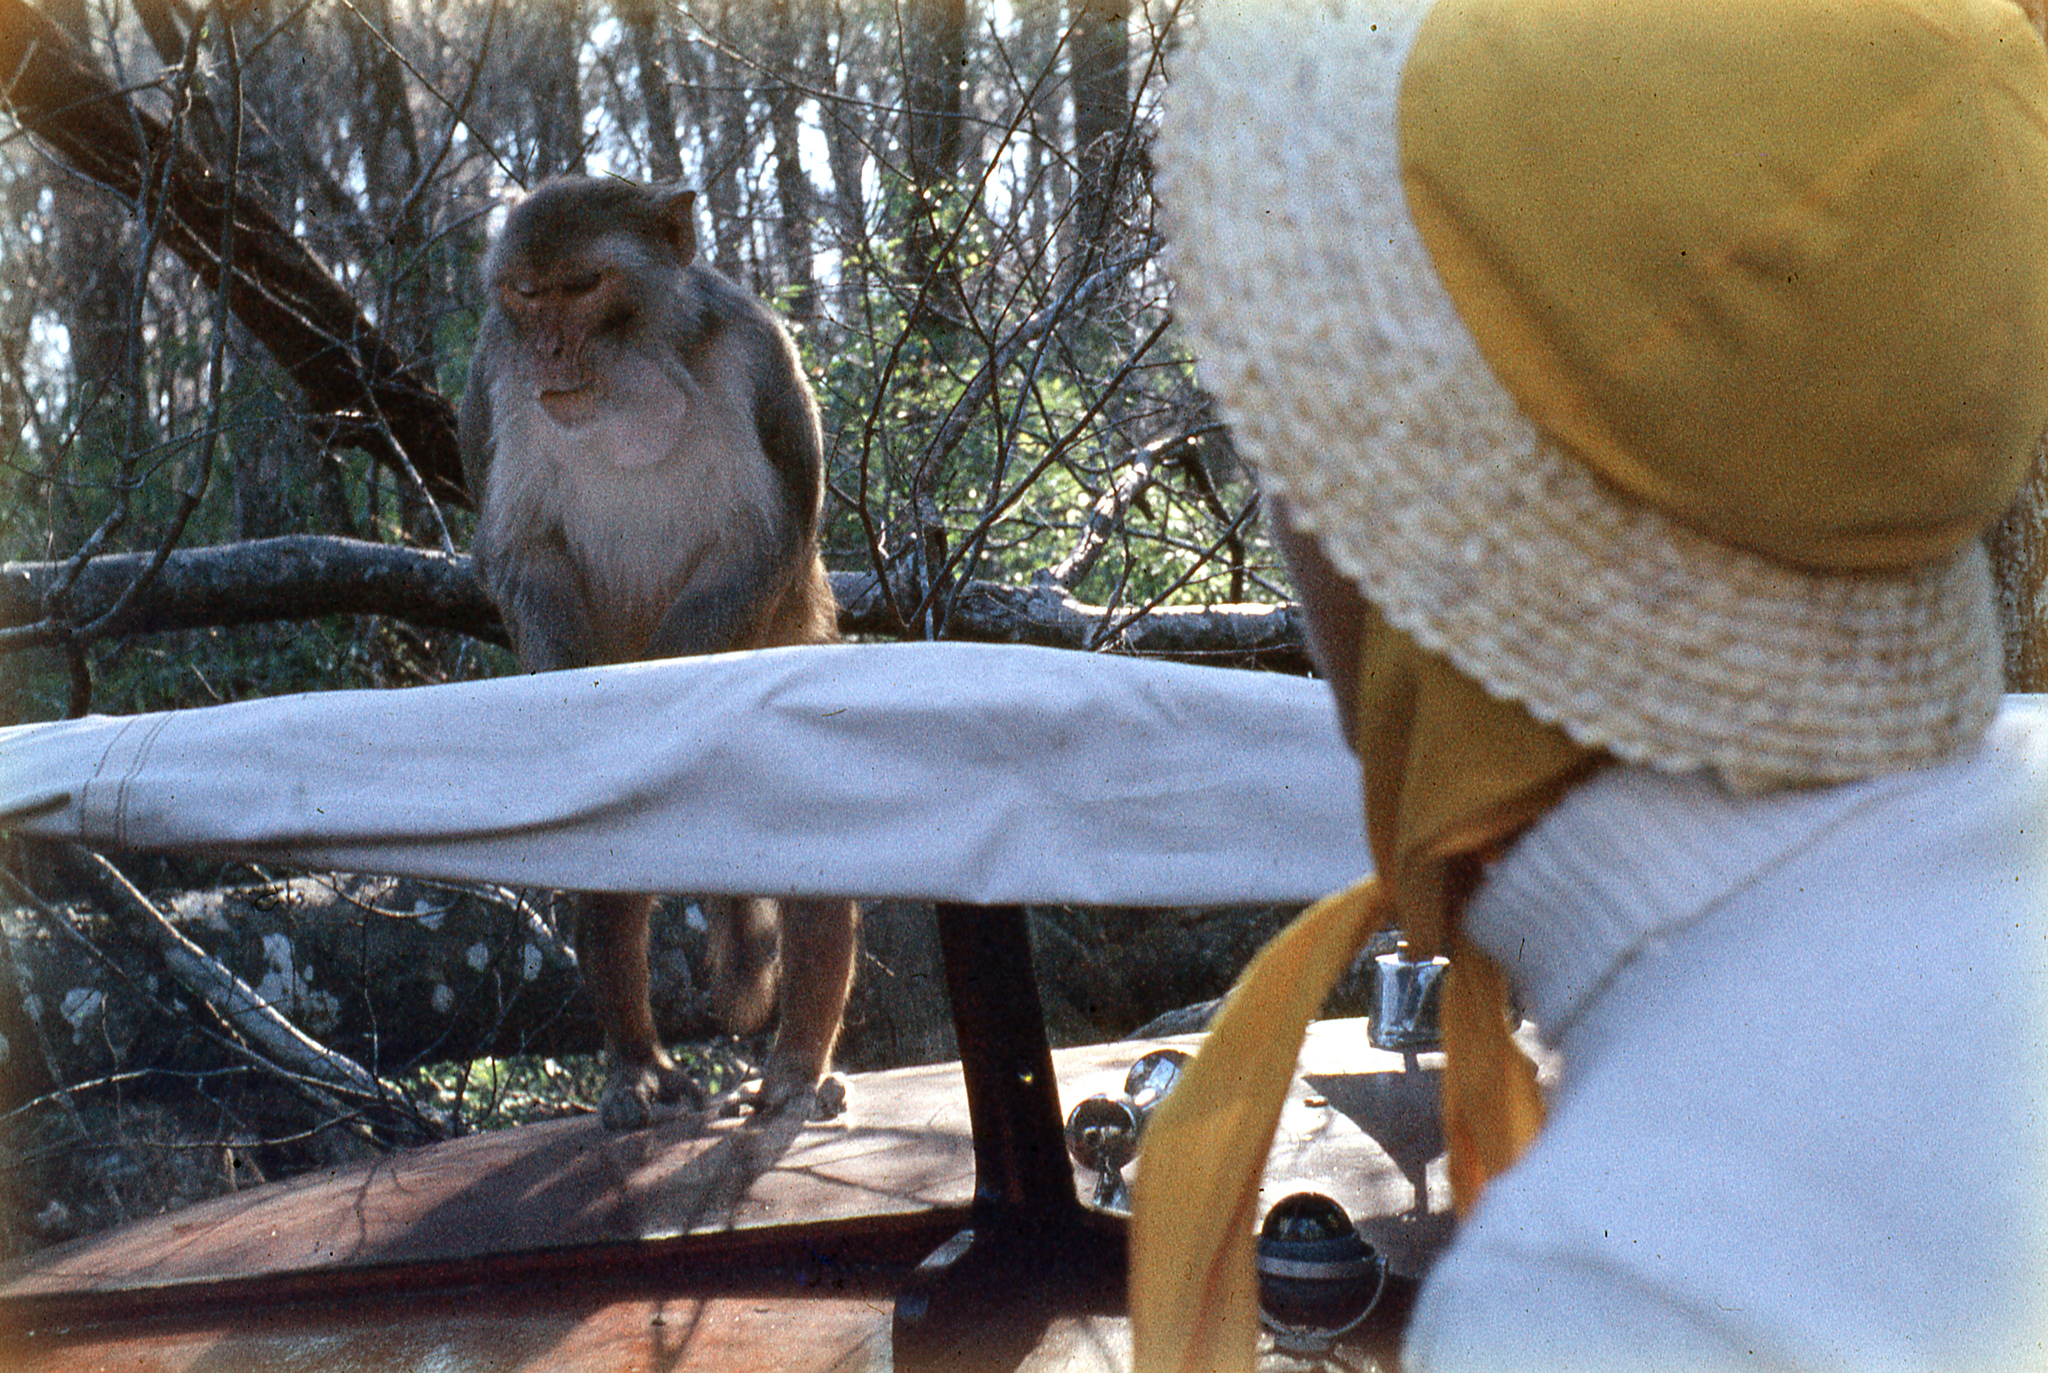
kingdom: Animalia
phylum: Chordata
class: Mammalia
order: Primates
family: Cercopithecidae
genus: Macaca
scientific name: Macaca mulatta
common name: Rhesus monkey
